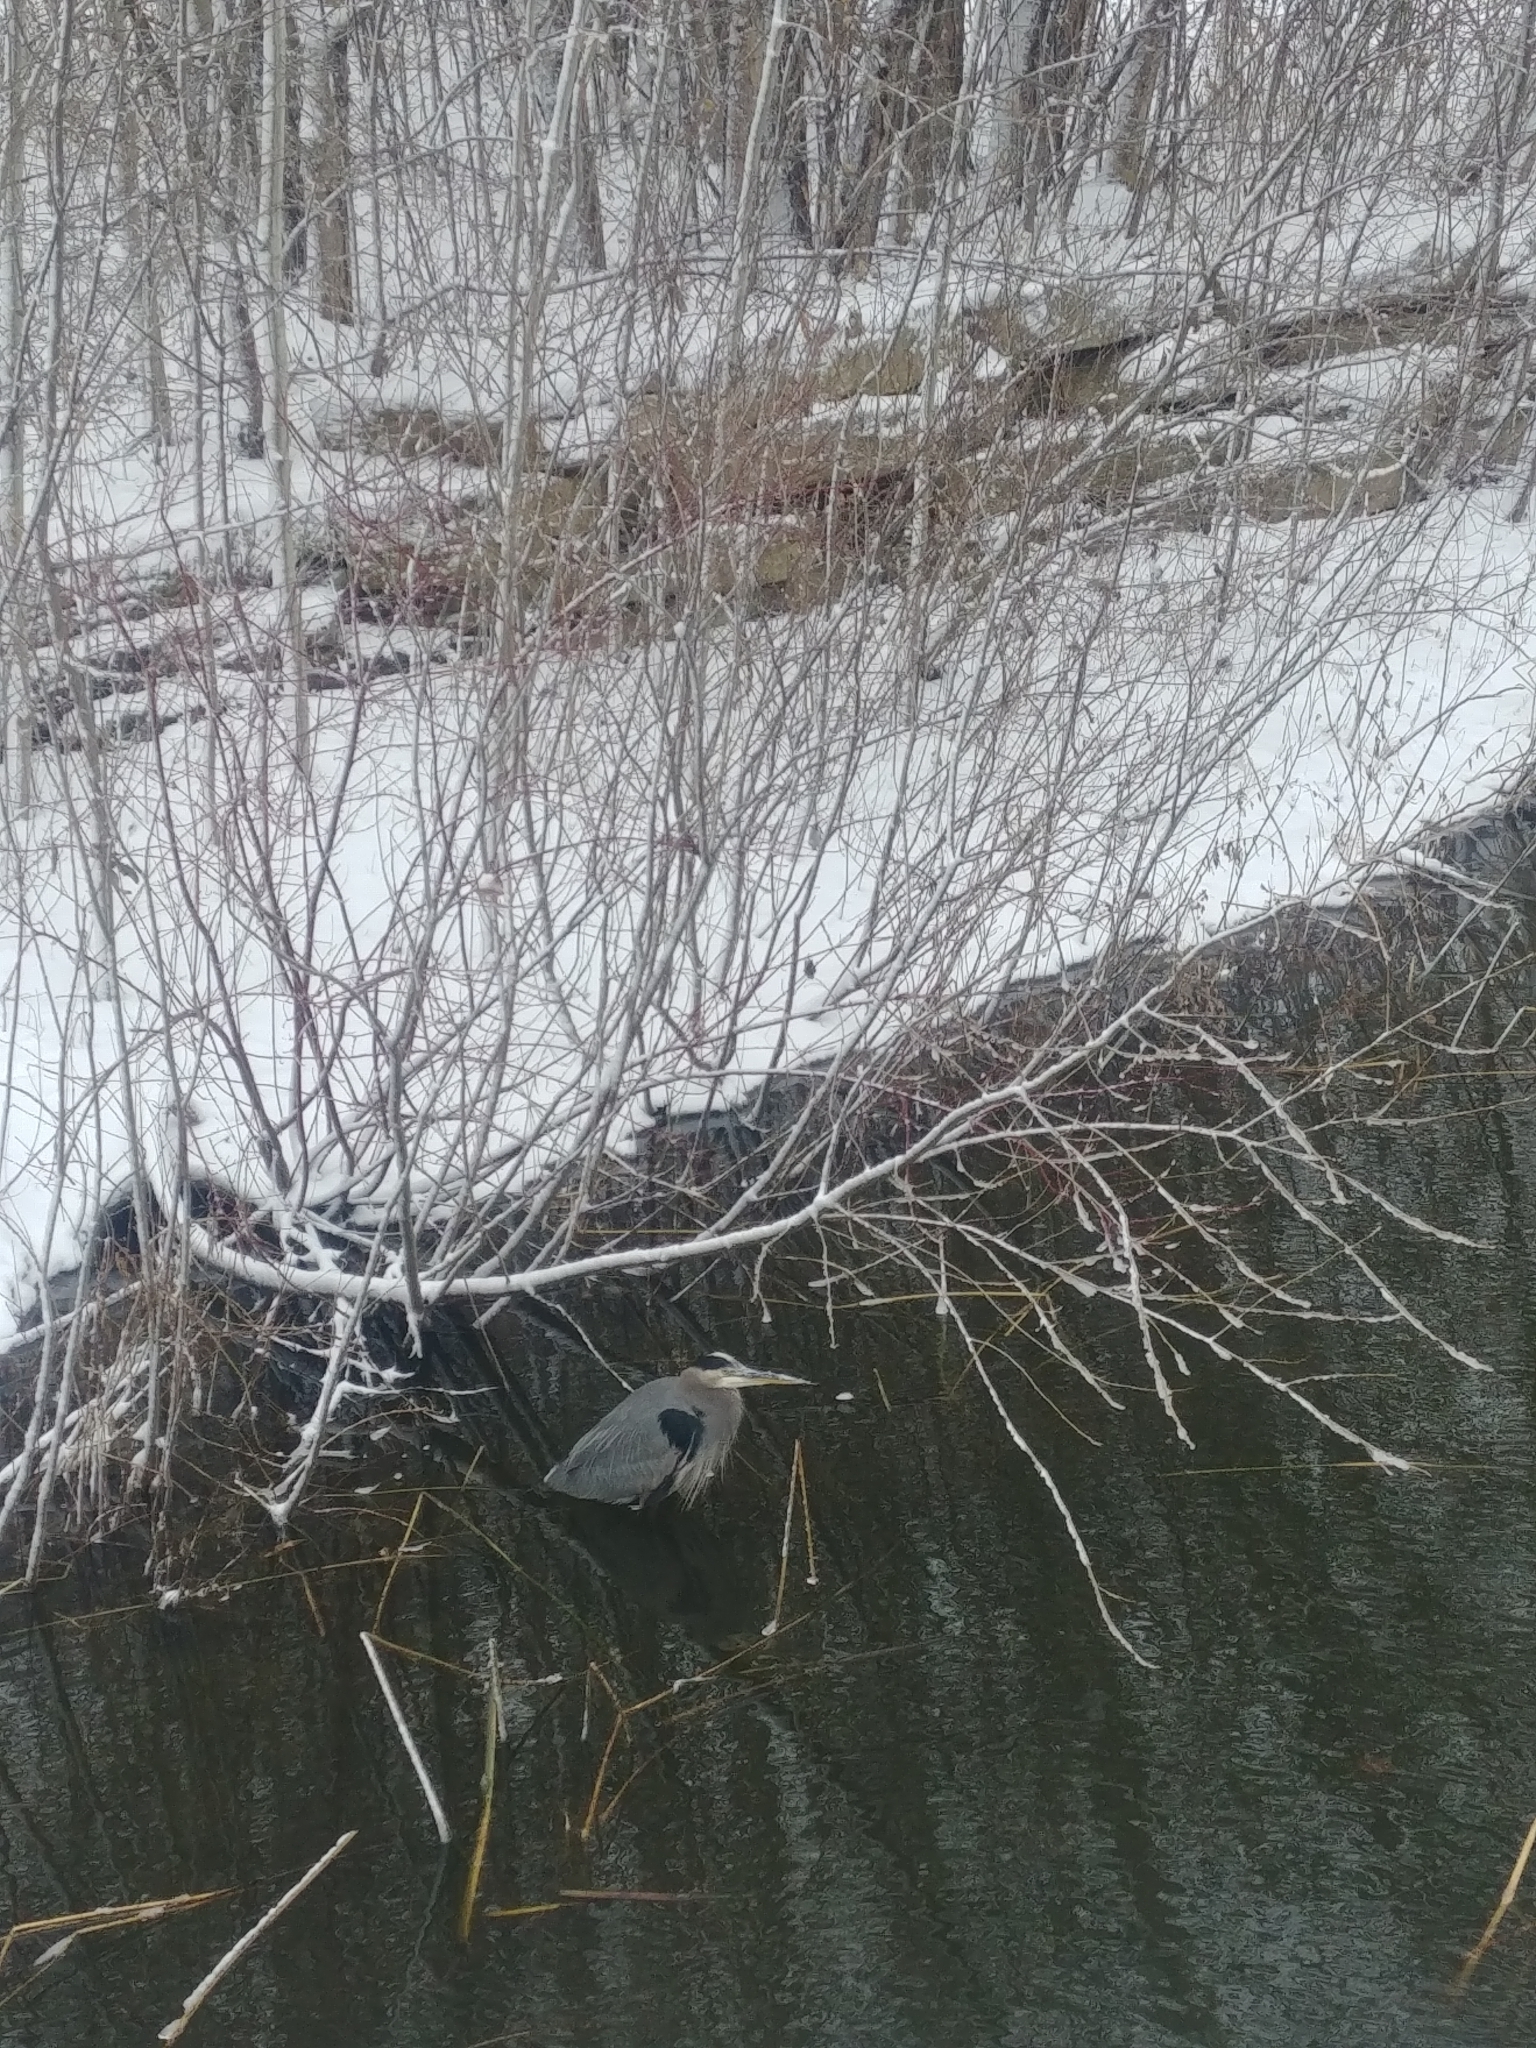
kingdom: Animalia
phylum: Chordata
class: Aves
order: Pelecaniformes
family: Ardeidae
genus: Ardea
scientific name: Ardea herodias
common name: Great blue heron
